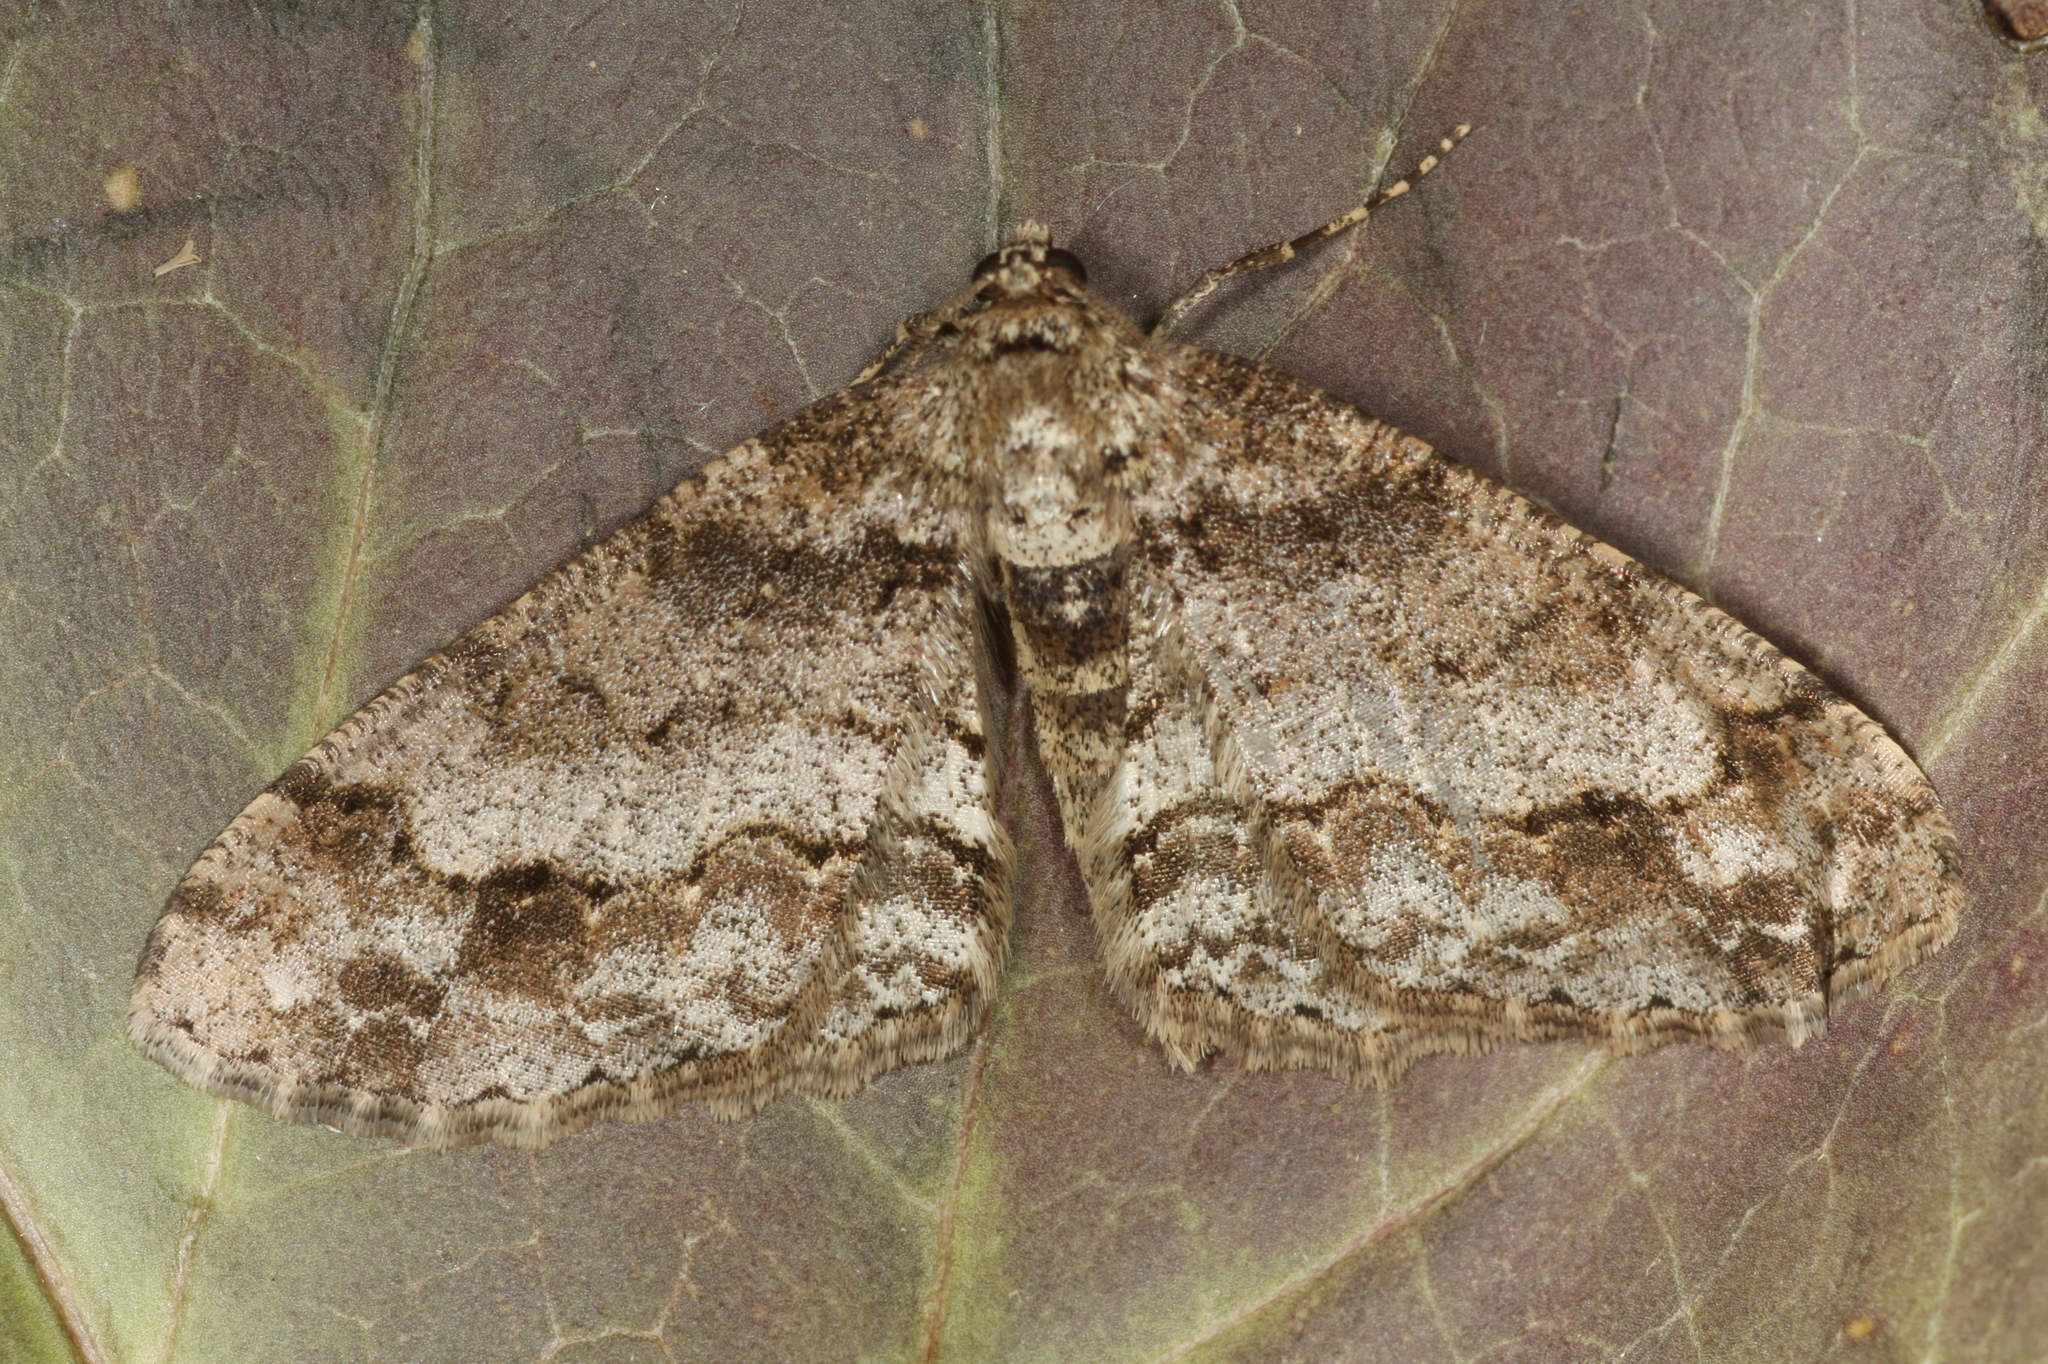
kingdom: Animalia
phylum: Arthropoda
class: Insecta
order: Lepidoptera
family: Geometridae
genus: Paradarisa
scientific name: Paradarisa consonaria
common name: Square spot
